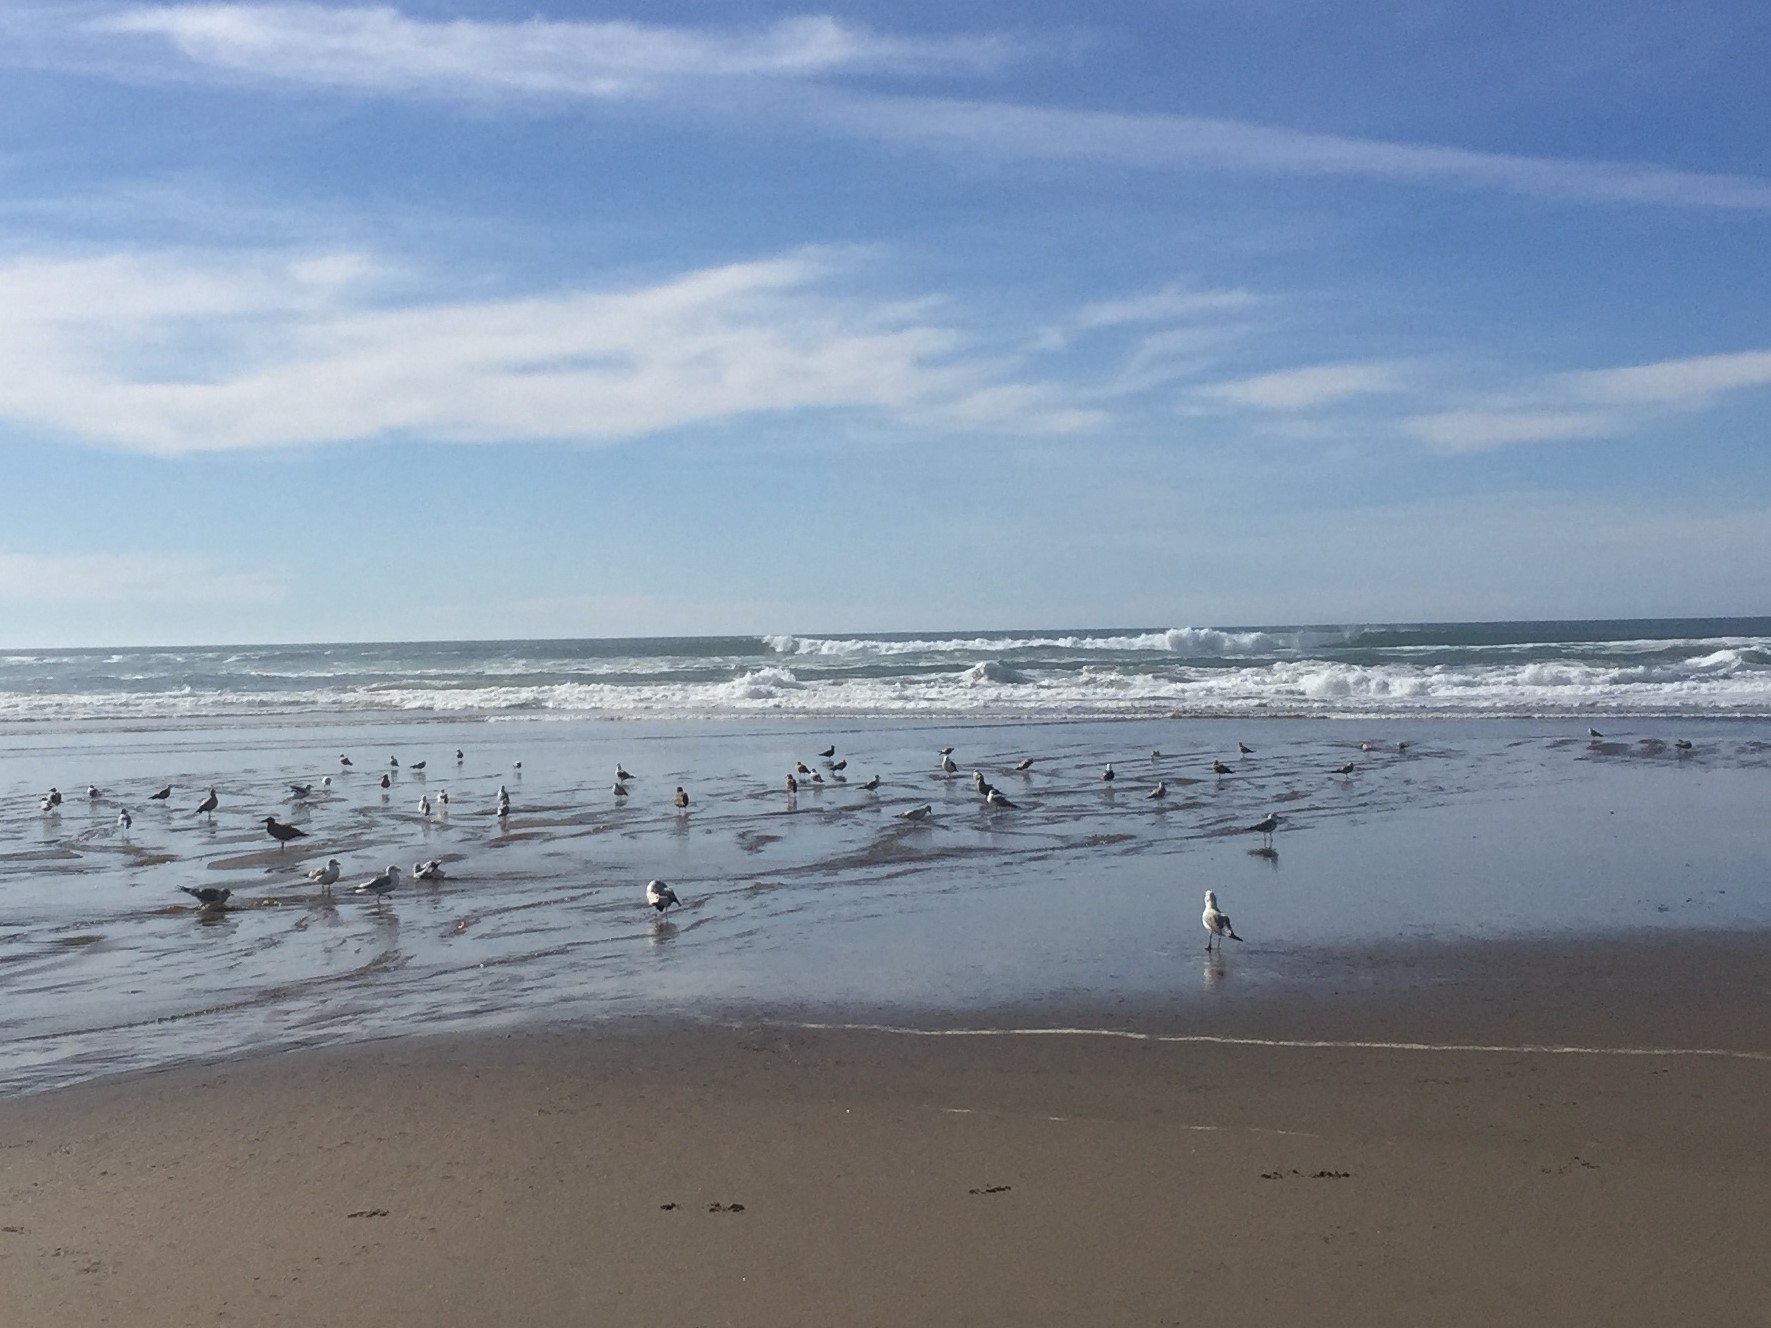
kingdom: Animalia
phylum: Chordata
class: Aves
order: Charadriiformes
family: Laridae
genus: Larus
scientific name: Larus
